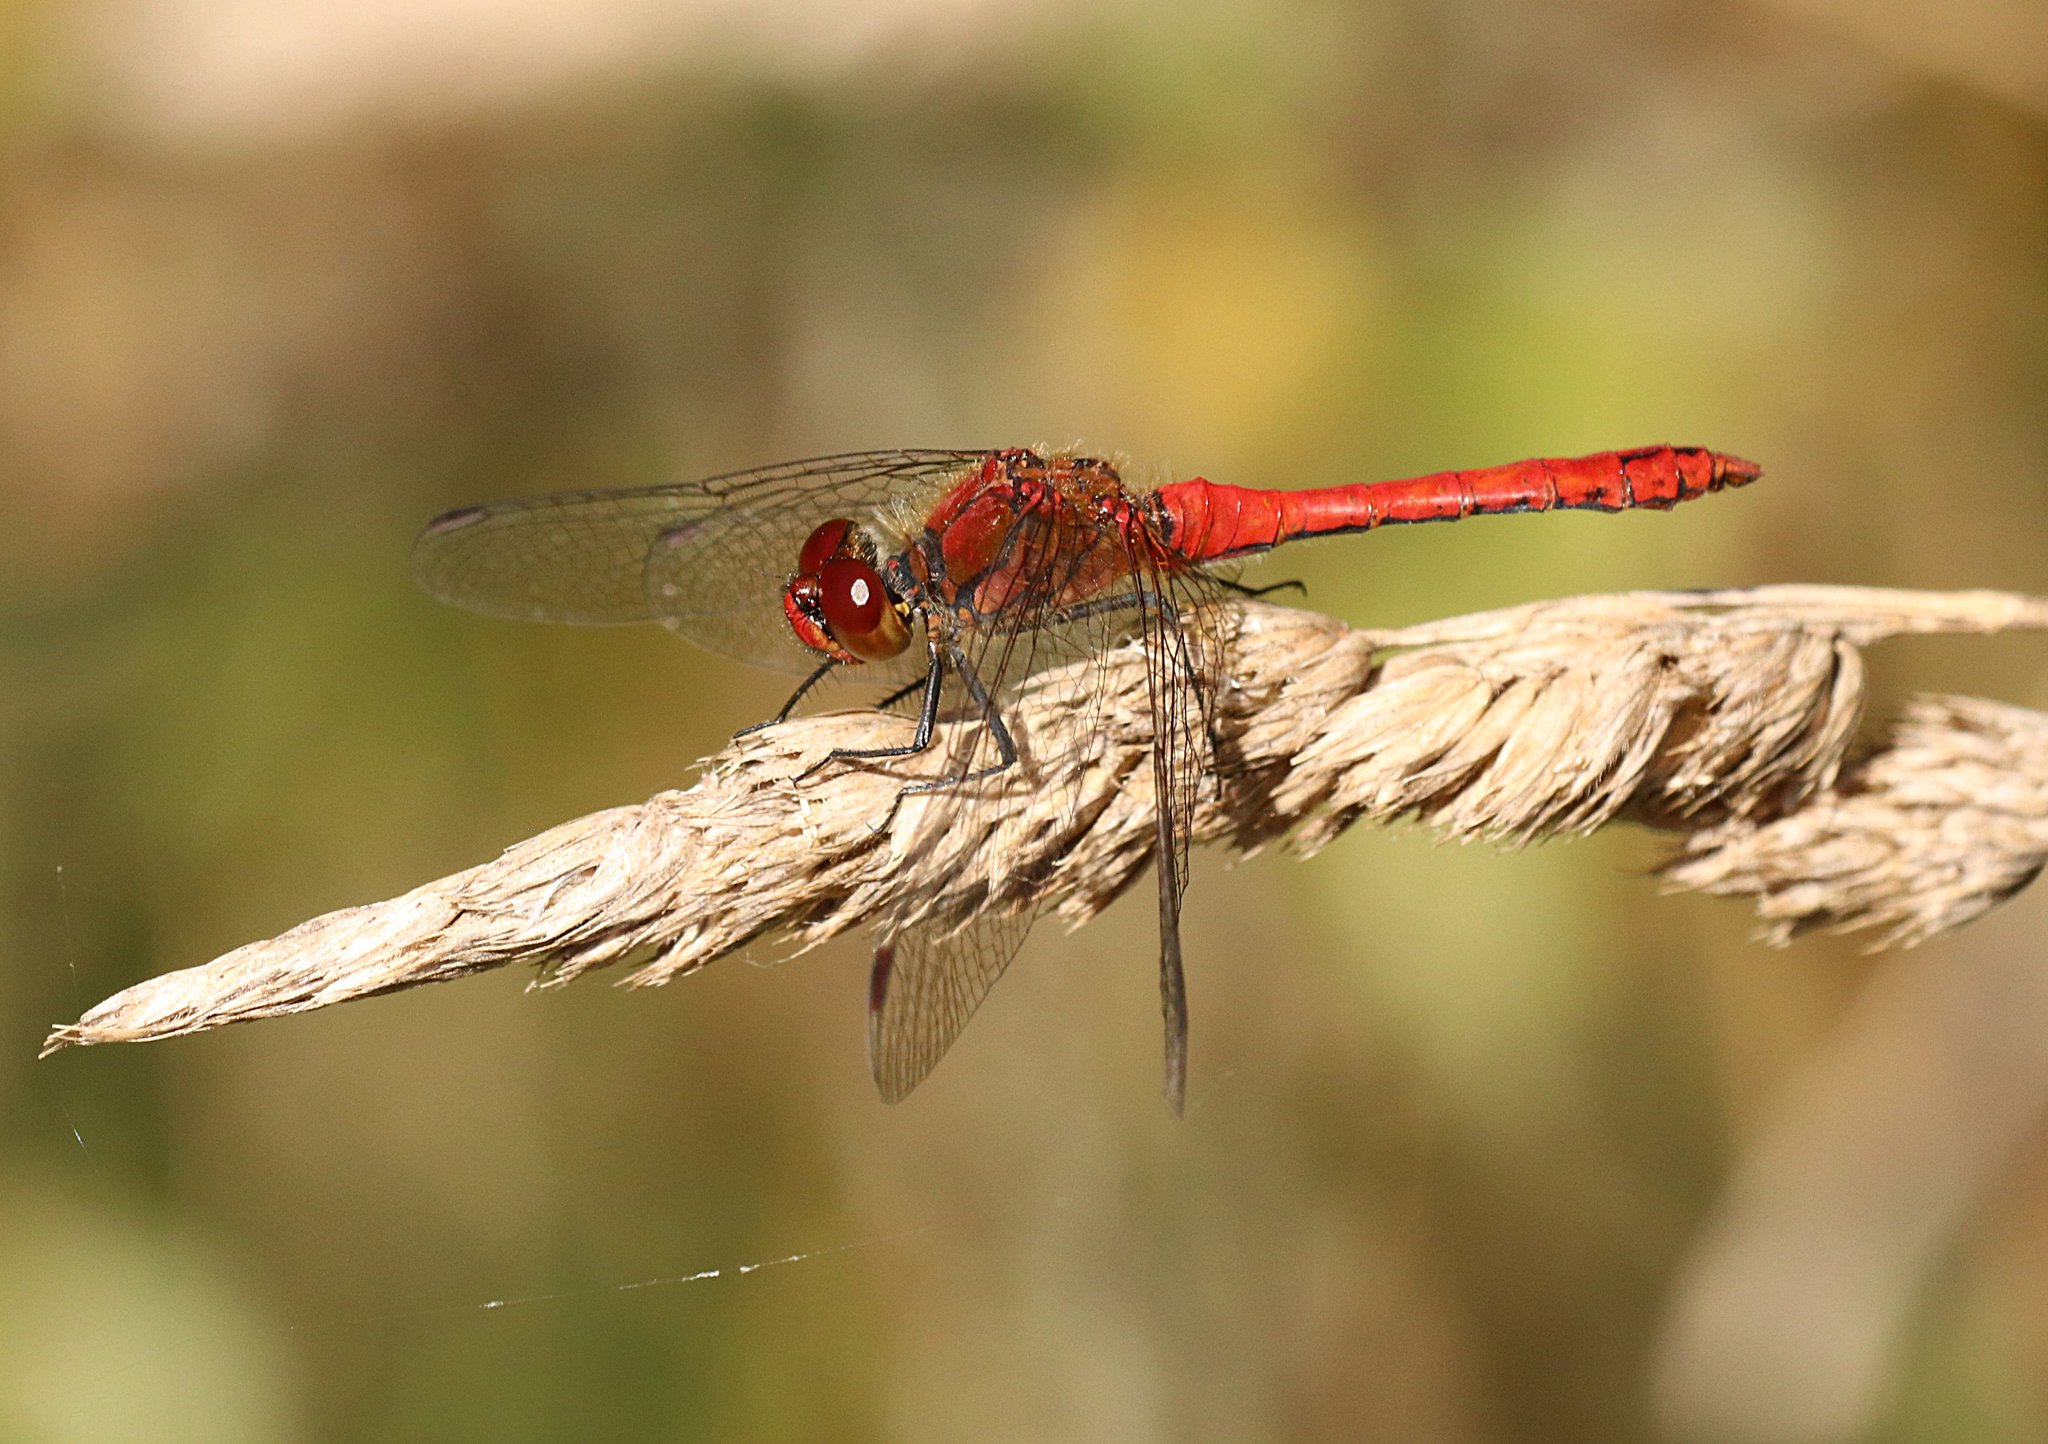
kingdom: Animalia
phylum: Arthropoda
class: Insecta
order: Odonata
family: Libellulidae
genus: Sympetrum
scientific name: Sympetrum sanguineum
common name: Ruddy darter
